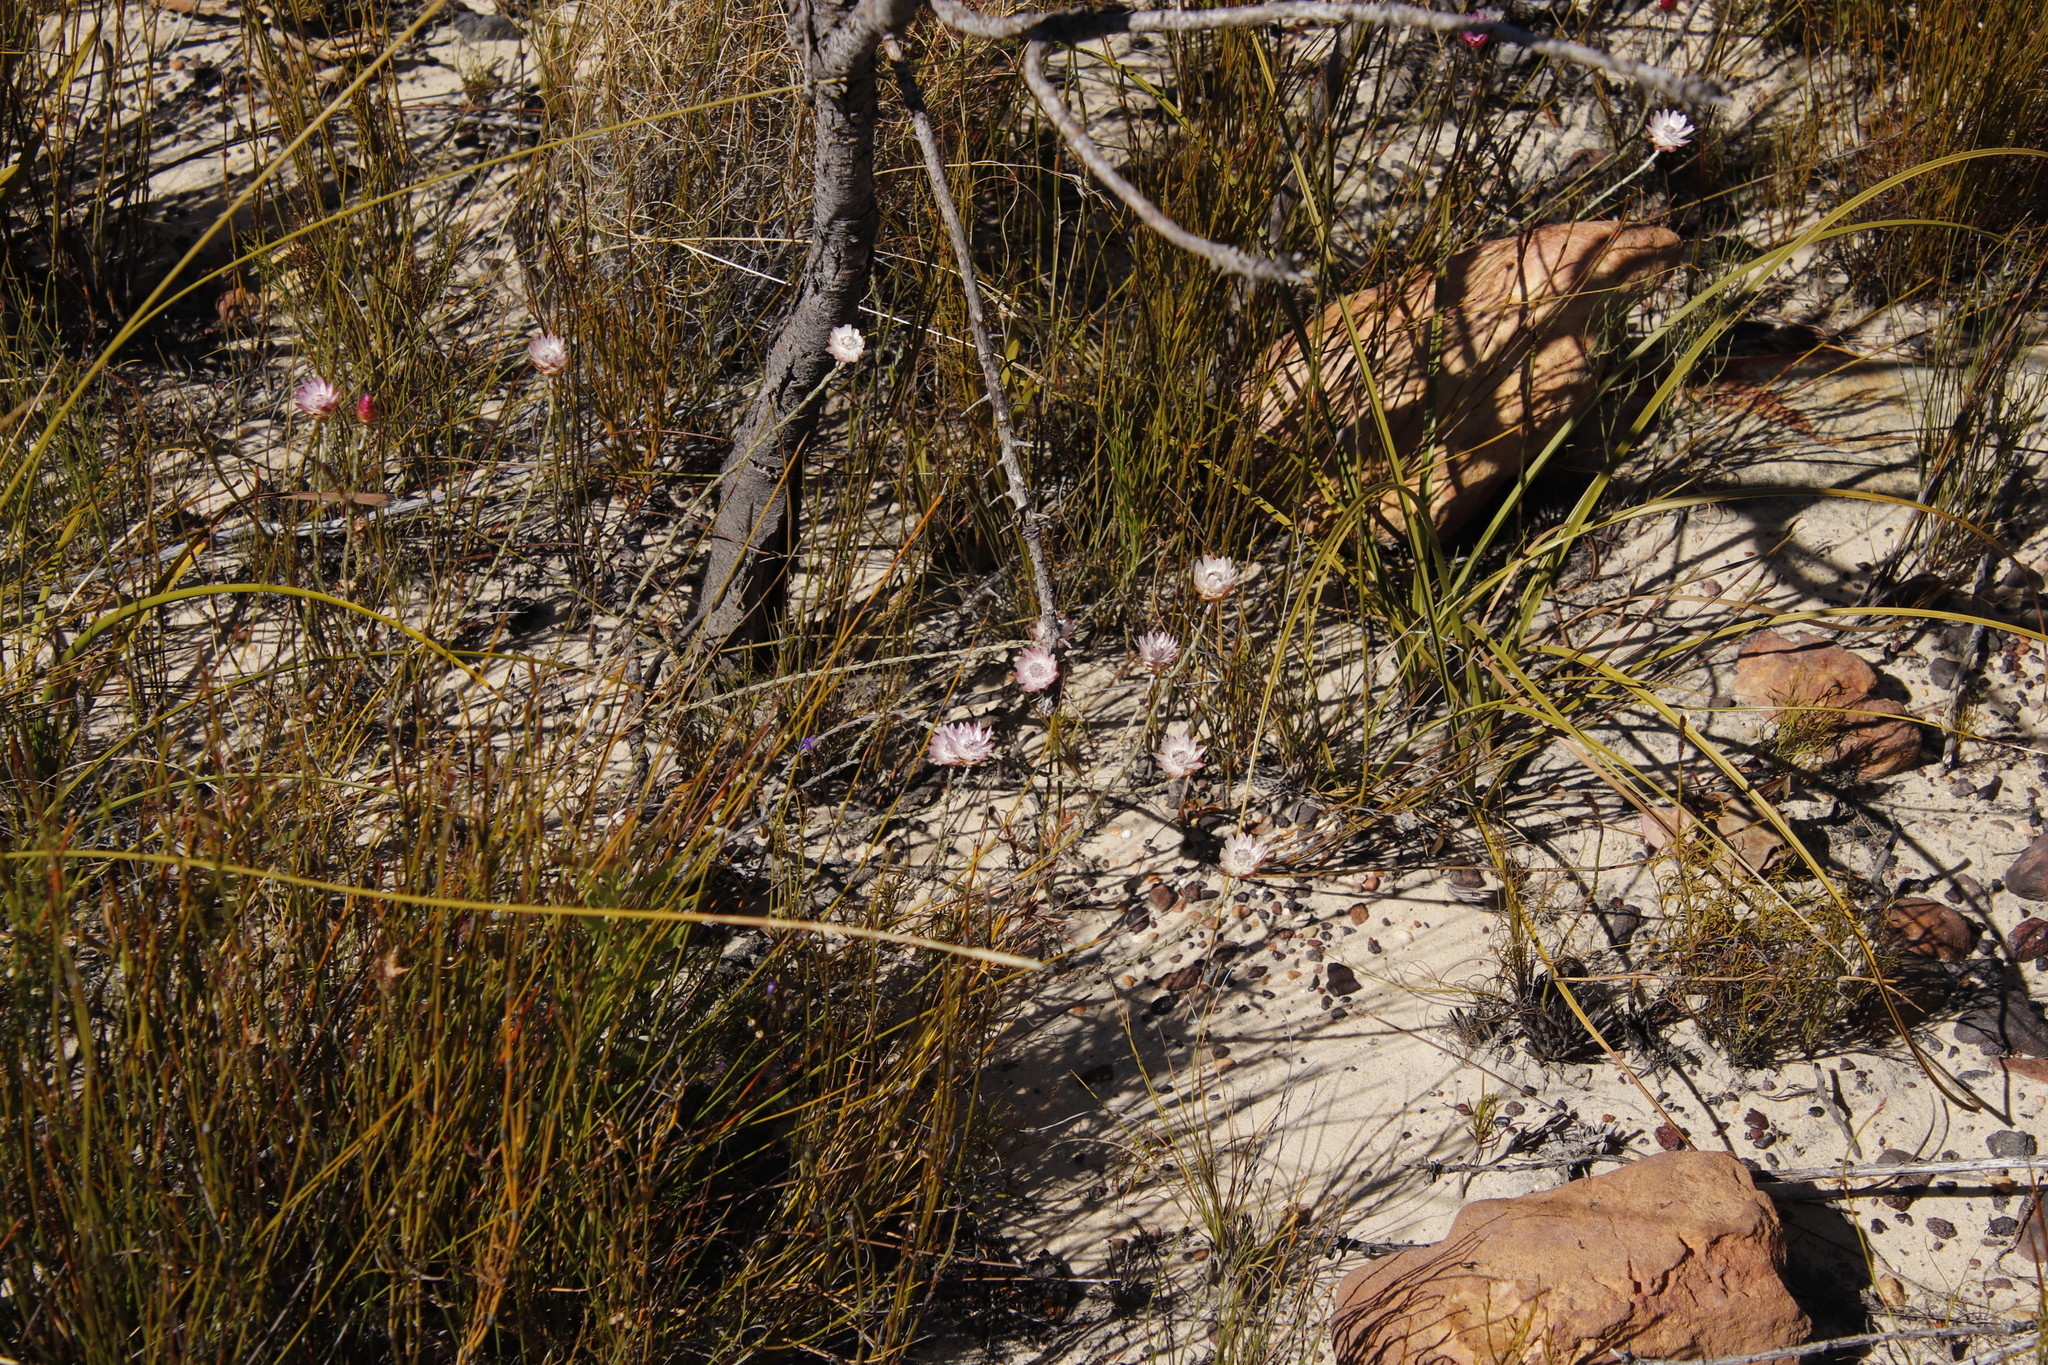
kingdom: Plantae
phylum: Tracheophyta
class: Magnoliopsida
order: Asterales
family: Asteraceae
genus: Syncarpha
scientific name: Syncarpha canescens
